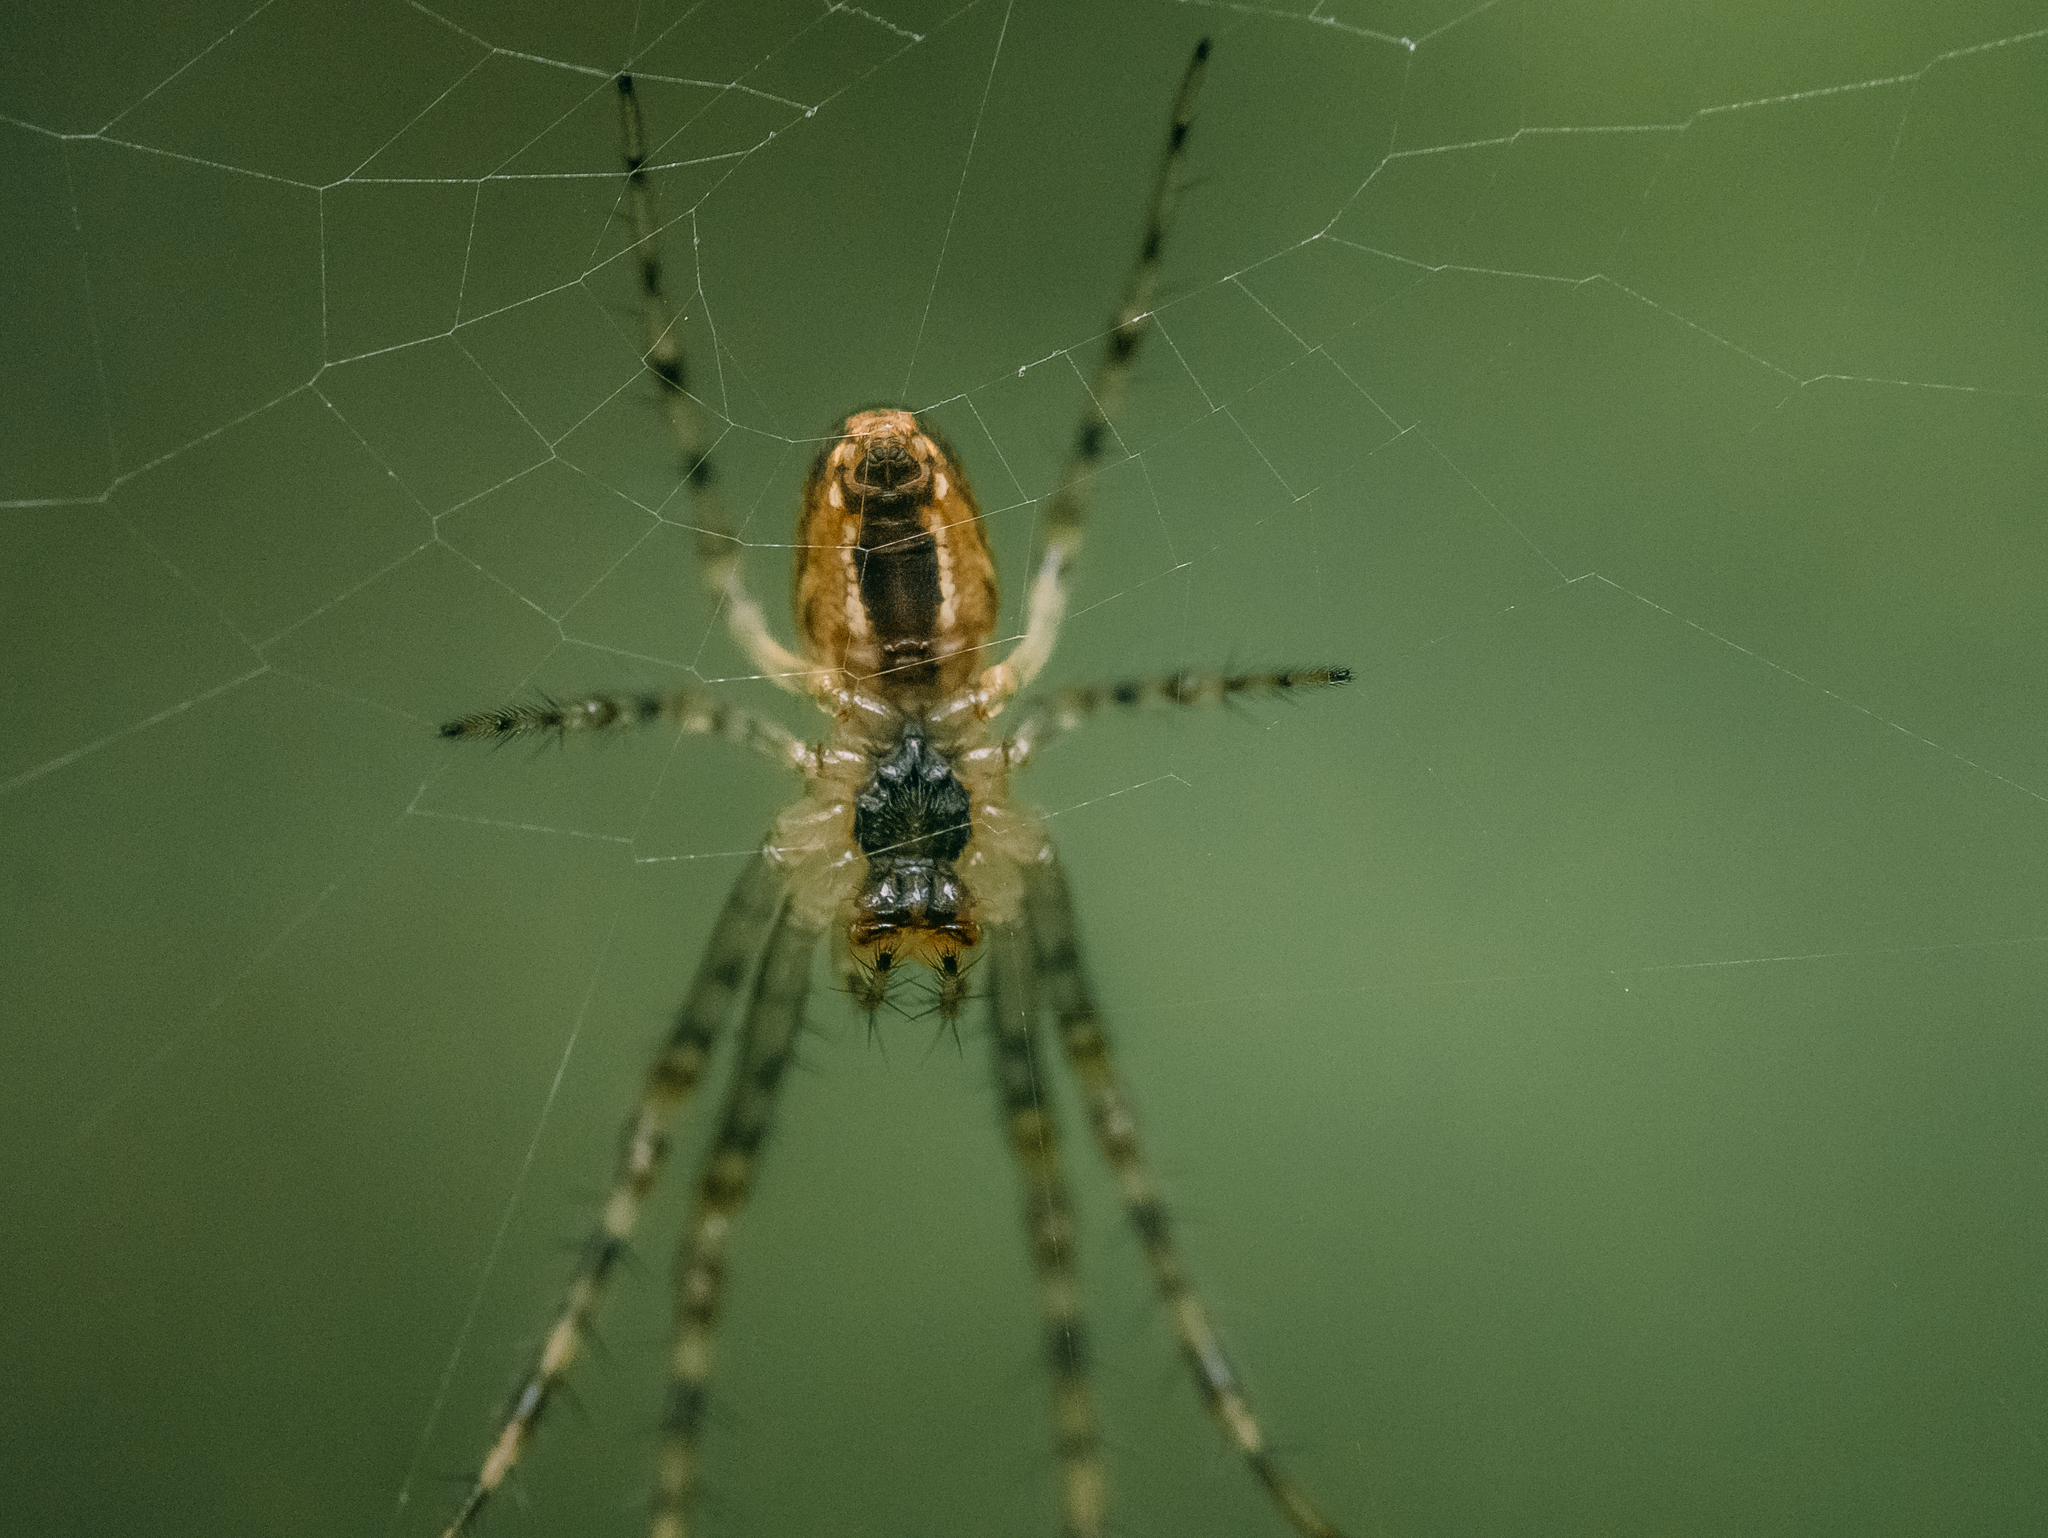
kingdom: Animalia
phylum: Arthropoda
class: Arachnida
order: Araneae
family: Tetragnathidae
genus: Metellina
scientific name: Metellina segmentata
